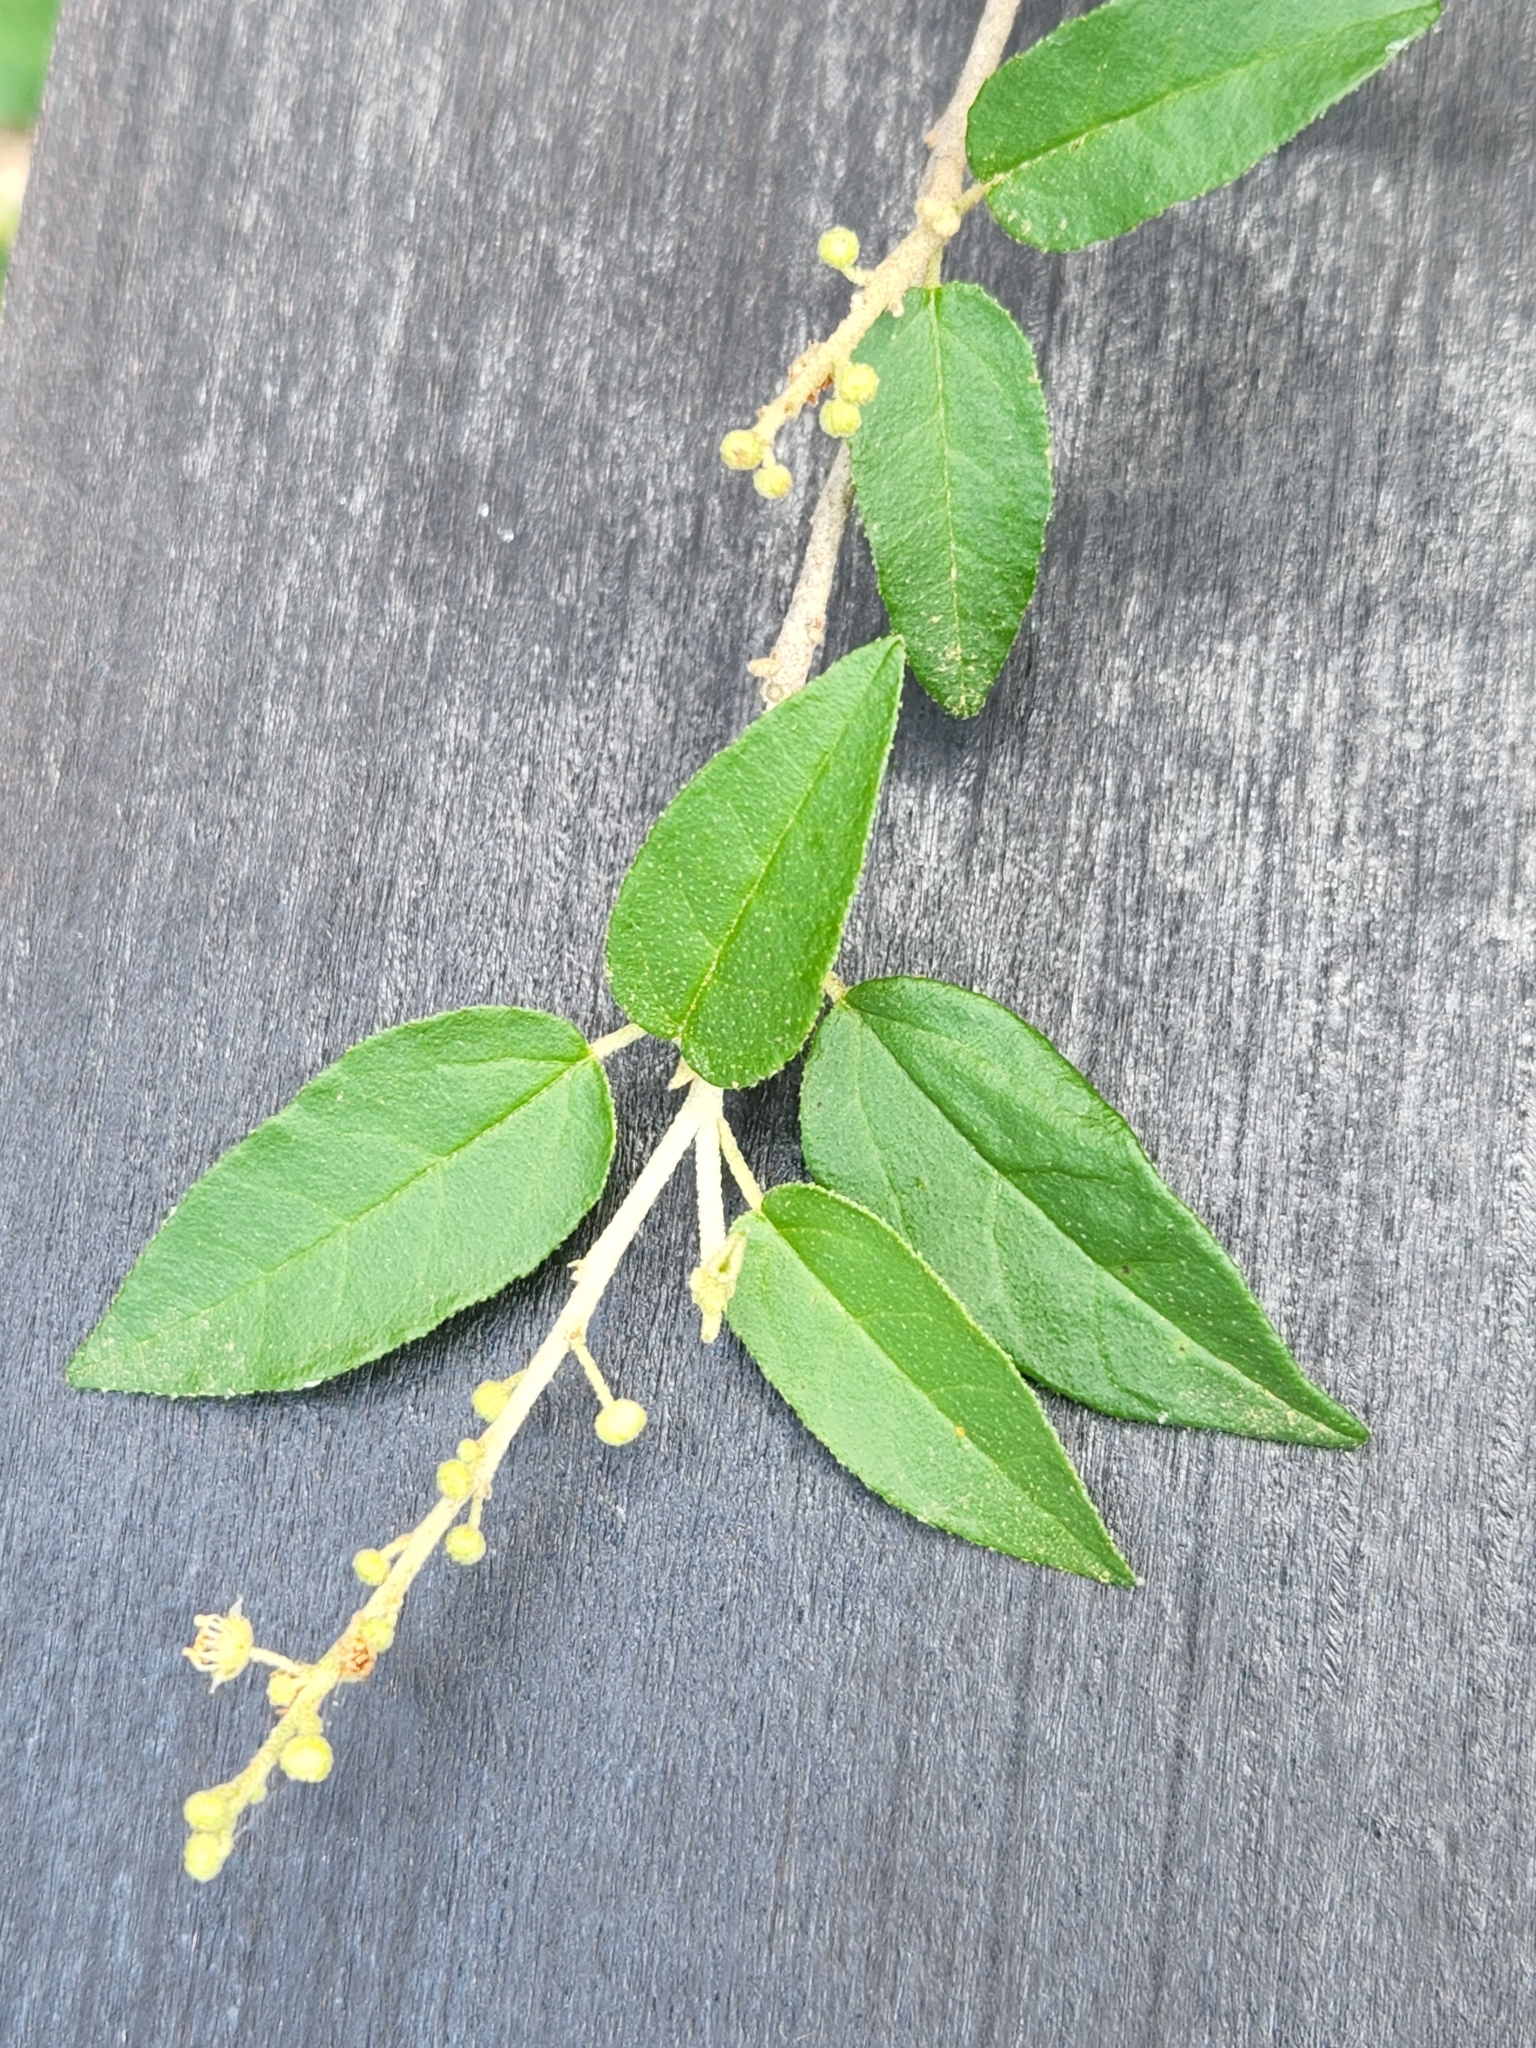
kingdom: Plantae
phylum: Tracheophyta
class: Magnoliopsida
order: Malpighiales
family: Euphorbiaceae
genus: Croton
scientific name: Croton fruticulosus
